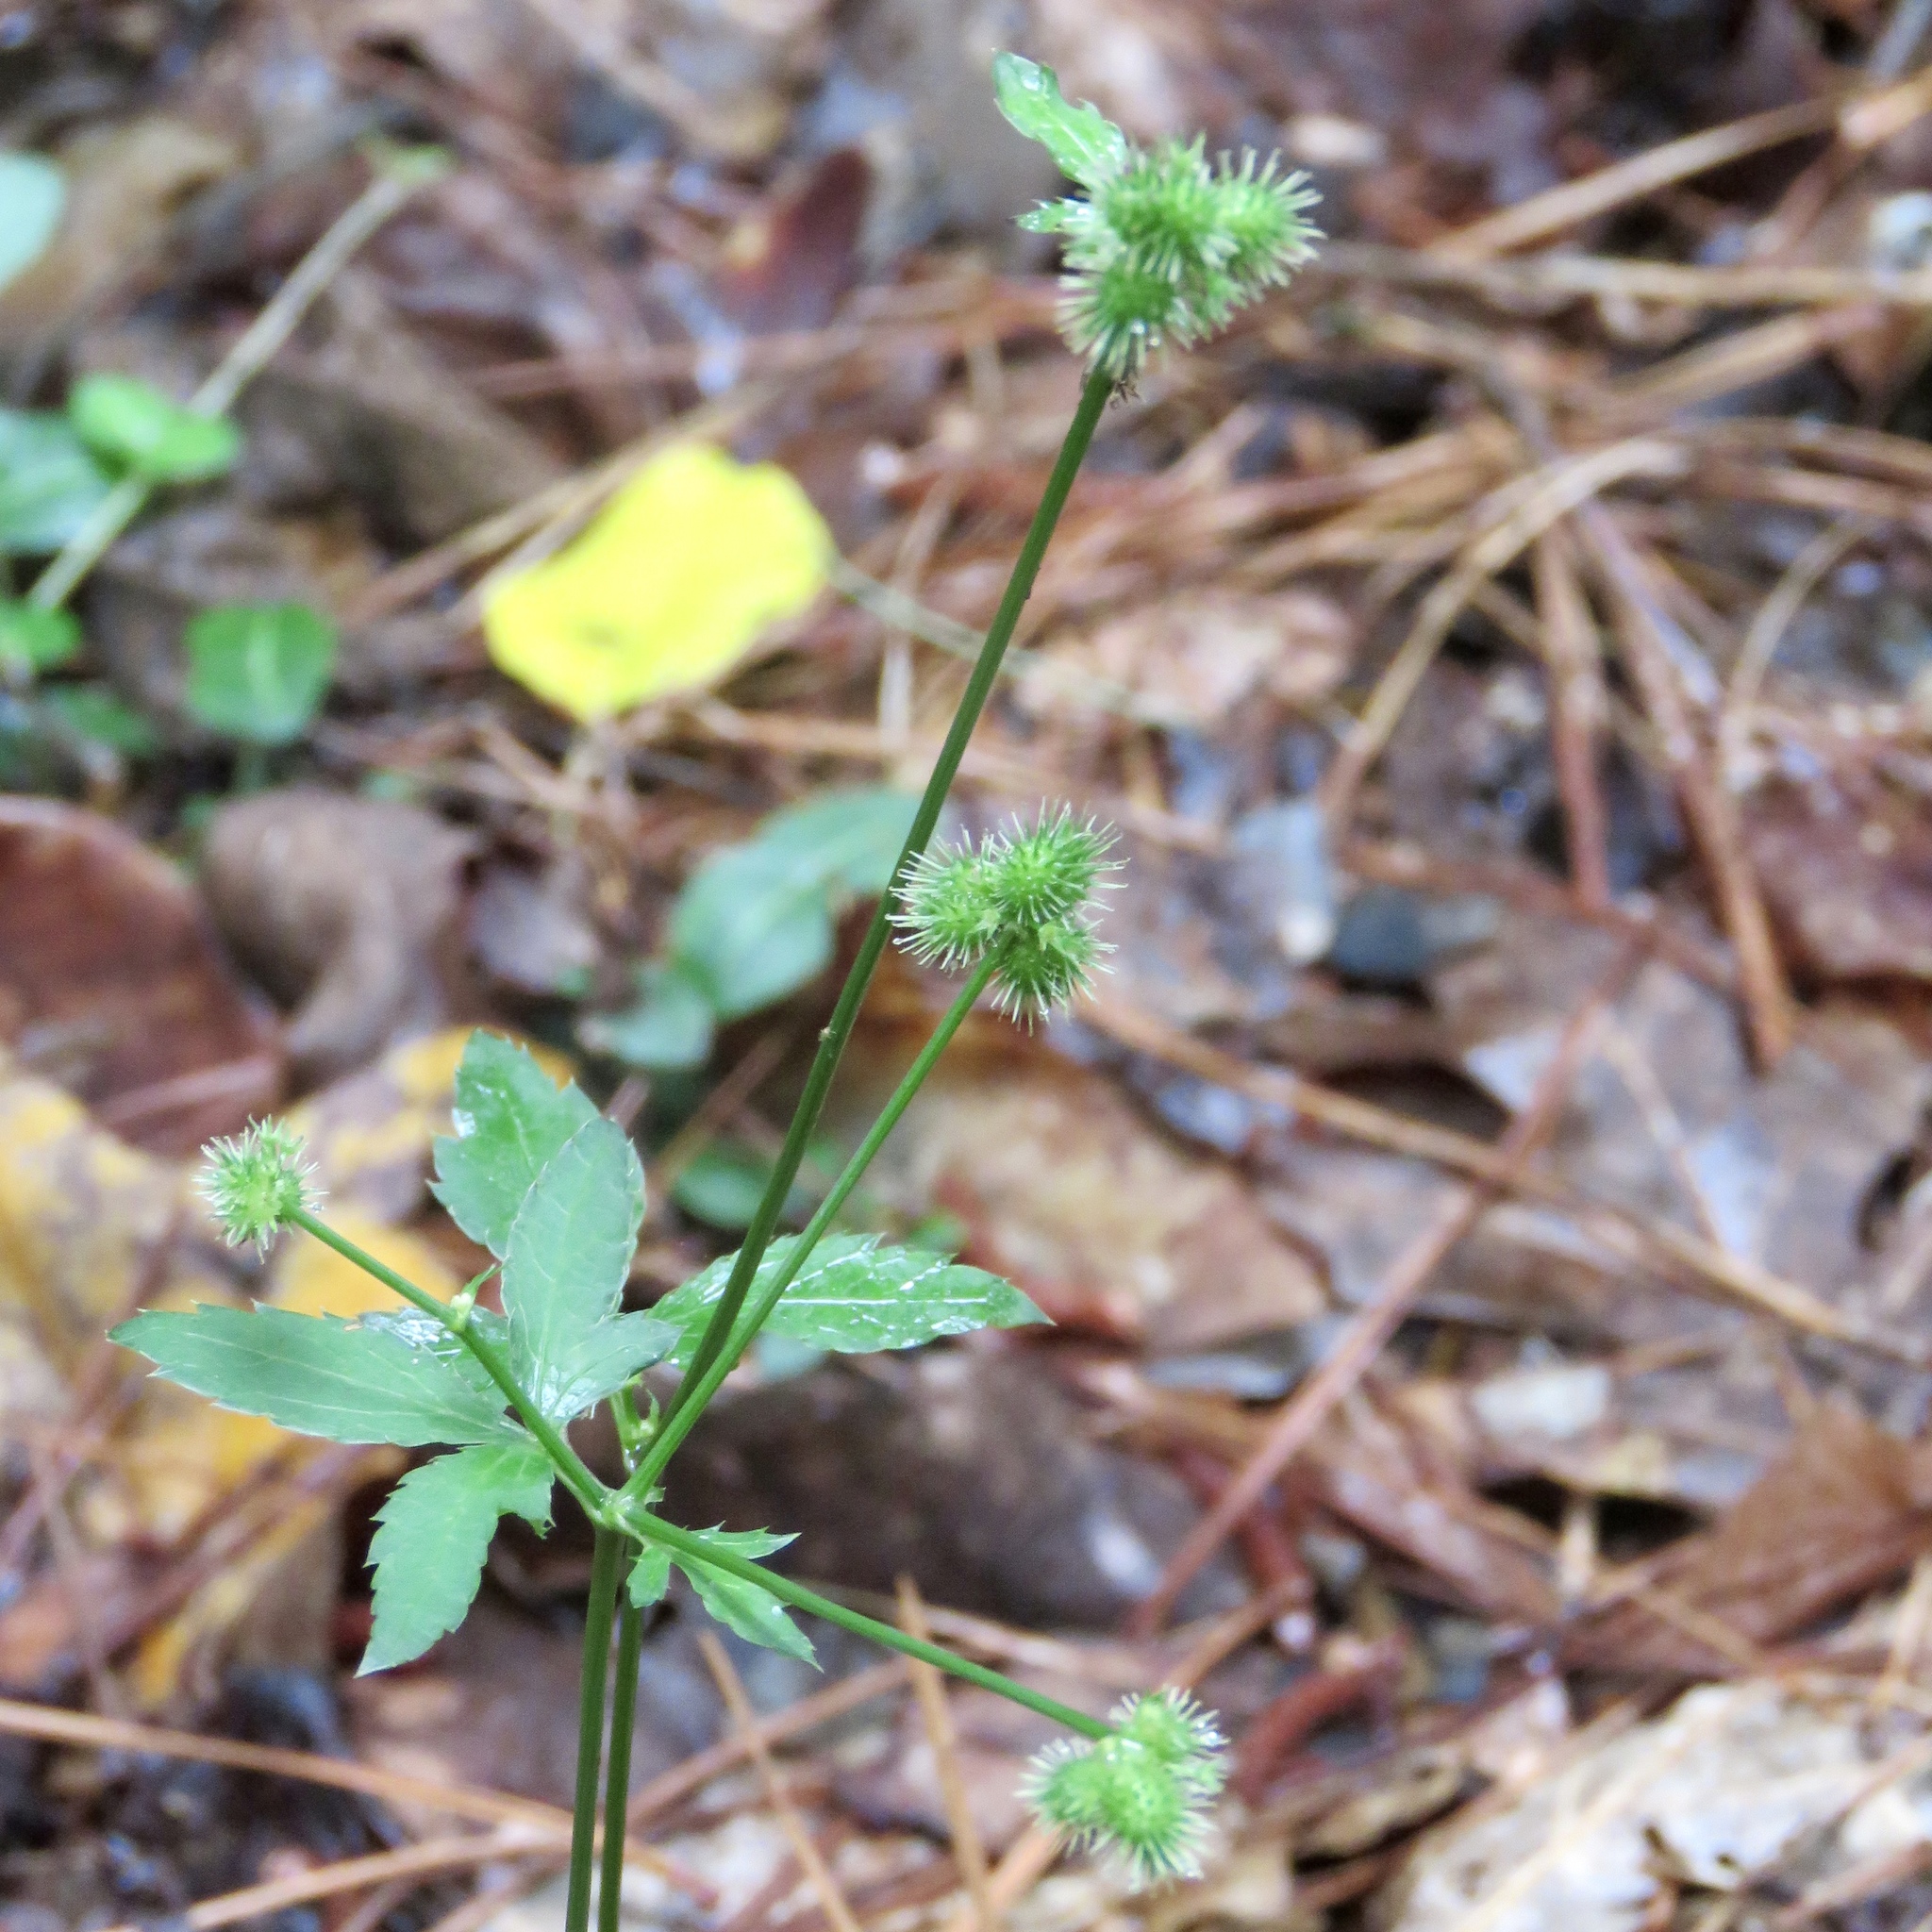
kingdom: Plantae
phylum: Tracheophyta
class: Magnoliopsida
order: Apiales
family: Apiaceae
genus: Sanicula
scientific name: Sanicula canadensis
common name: Canada sanicle
